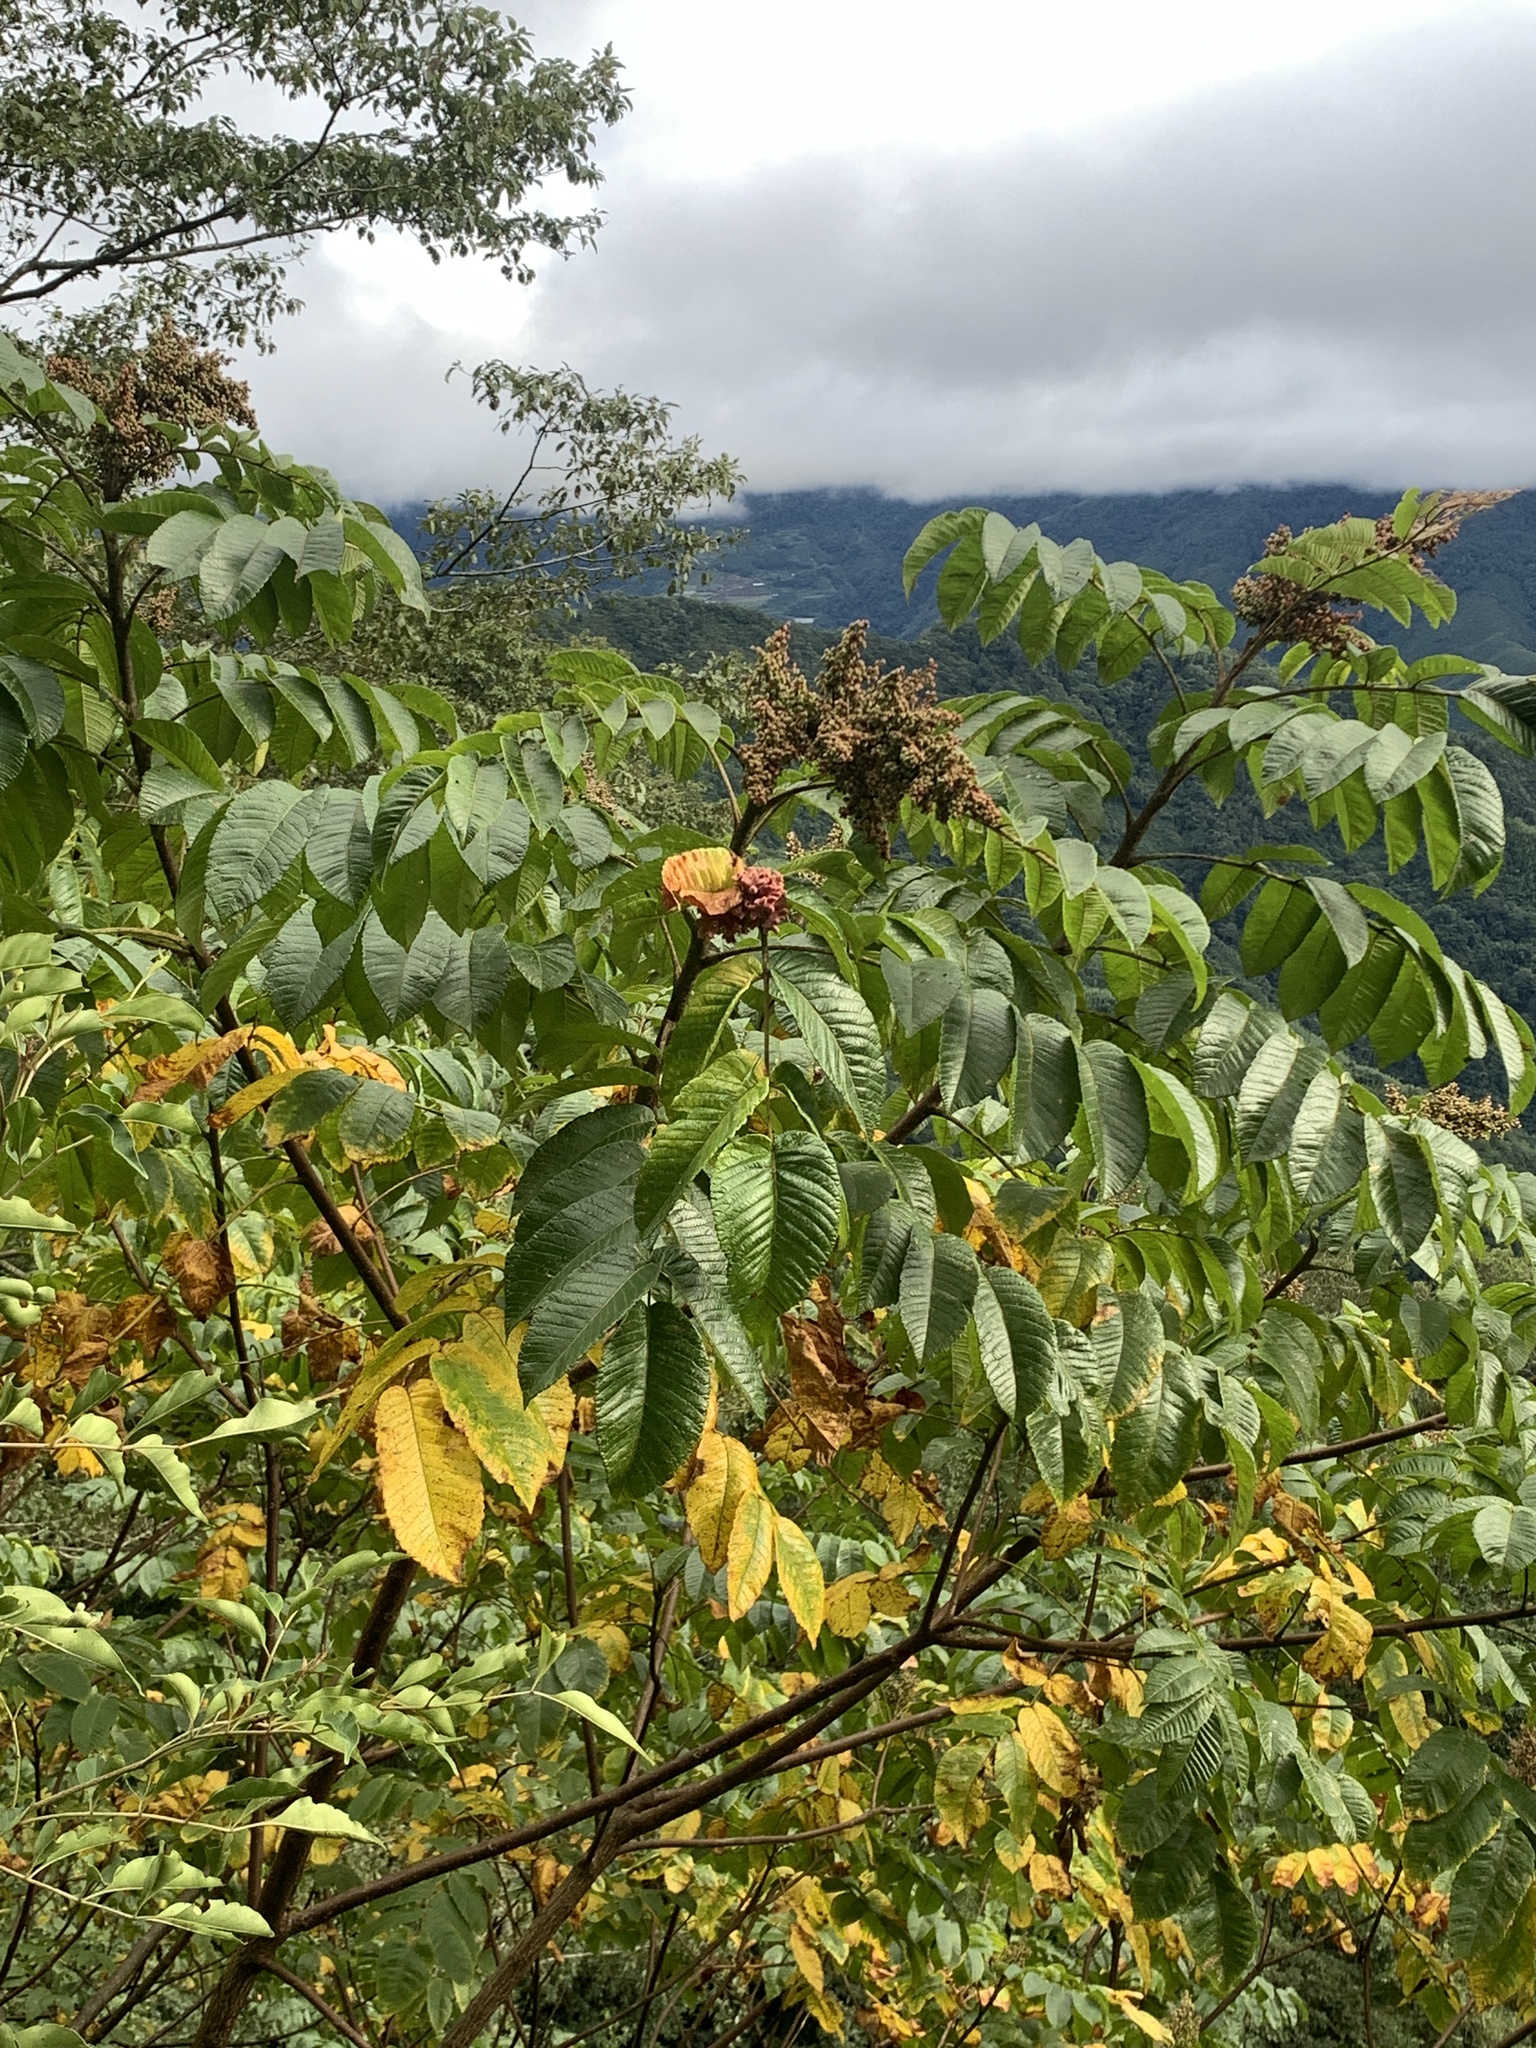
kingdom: Plantae
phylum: Tracheophyta
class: Magnoliopsida
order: Sapindales
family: Anacardiaceae
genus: Rhus
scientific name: Rhus chinensis
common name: Chinese gall
